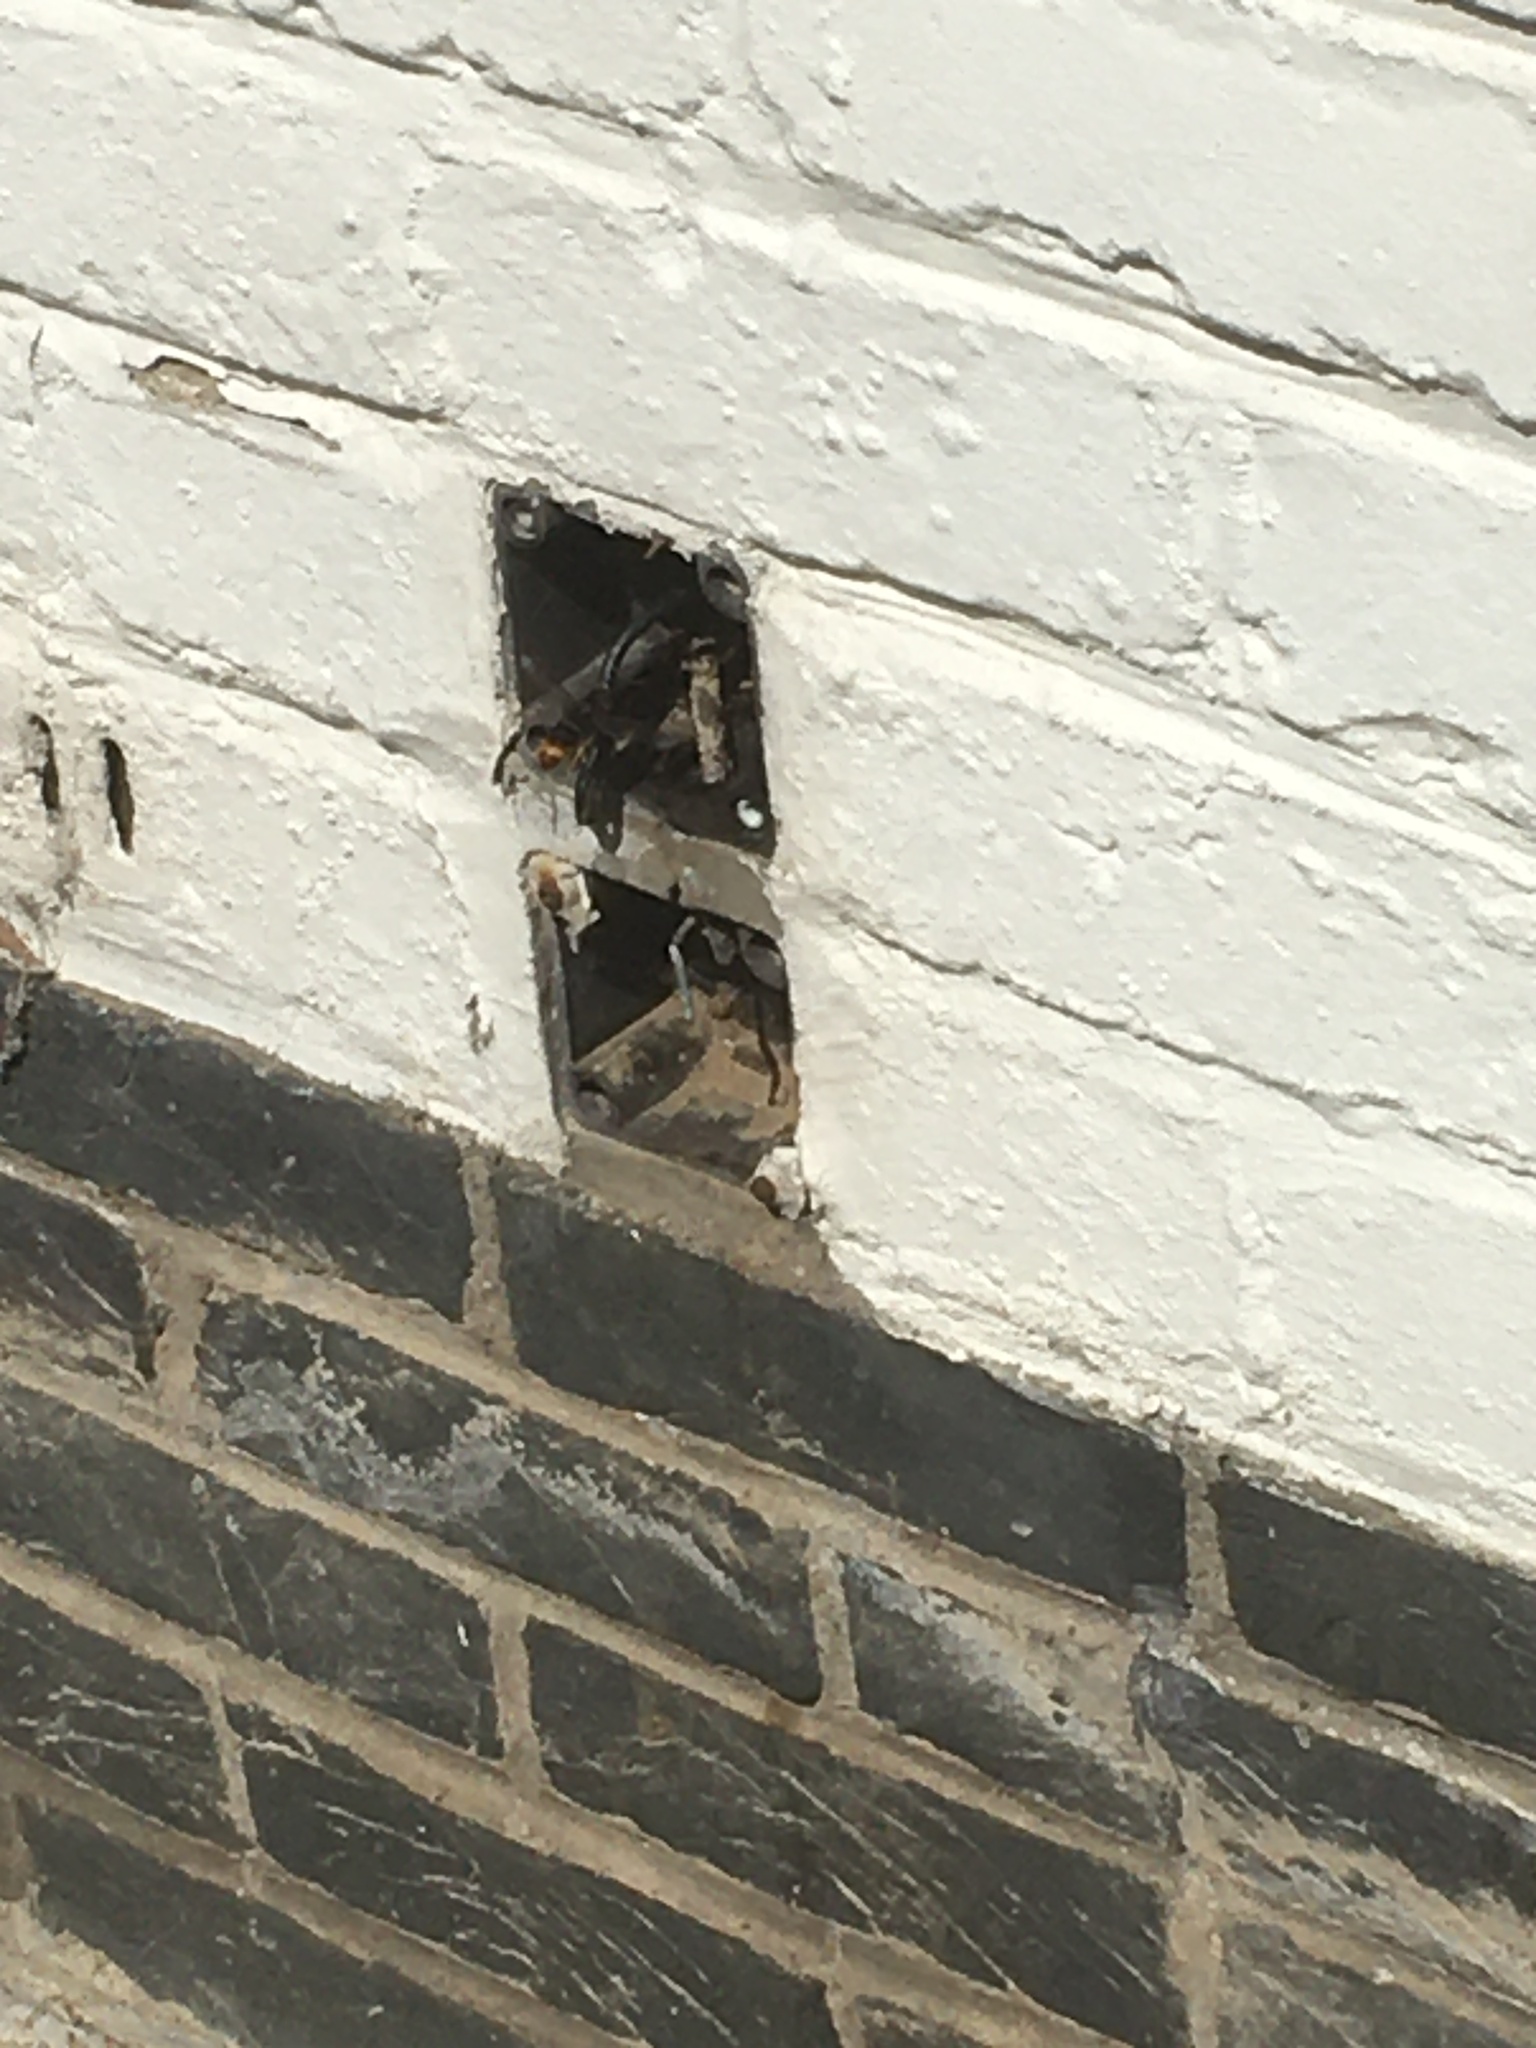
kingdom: Animalia
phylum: Arthropoda
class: Insecta
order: Hymenoptera
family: Vespidae
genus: Vespa
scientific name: Vespa velutina
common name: Asian hornet
